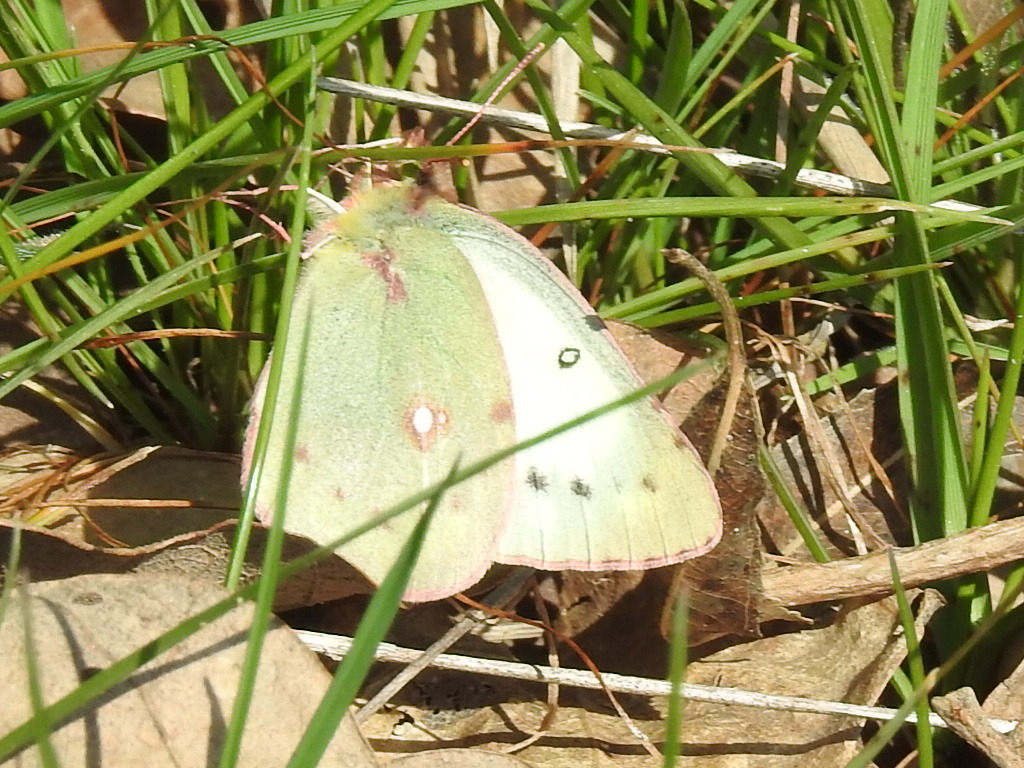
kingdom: Animalia
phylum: Arthropoda
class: Insecta
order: Lepidoptera
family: Pieridae
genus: Colias
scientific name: Colias eurytheme
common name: Alfalfa butterfly
